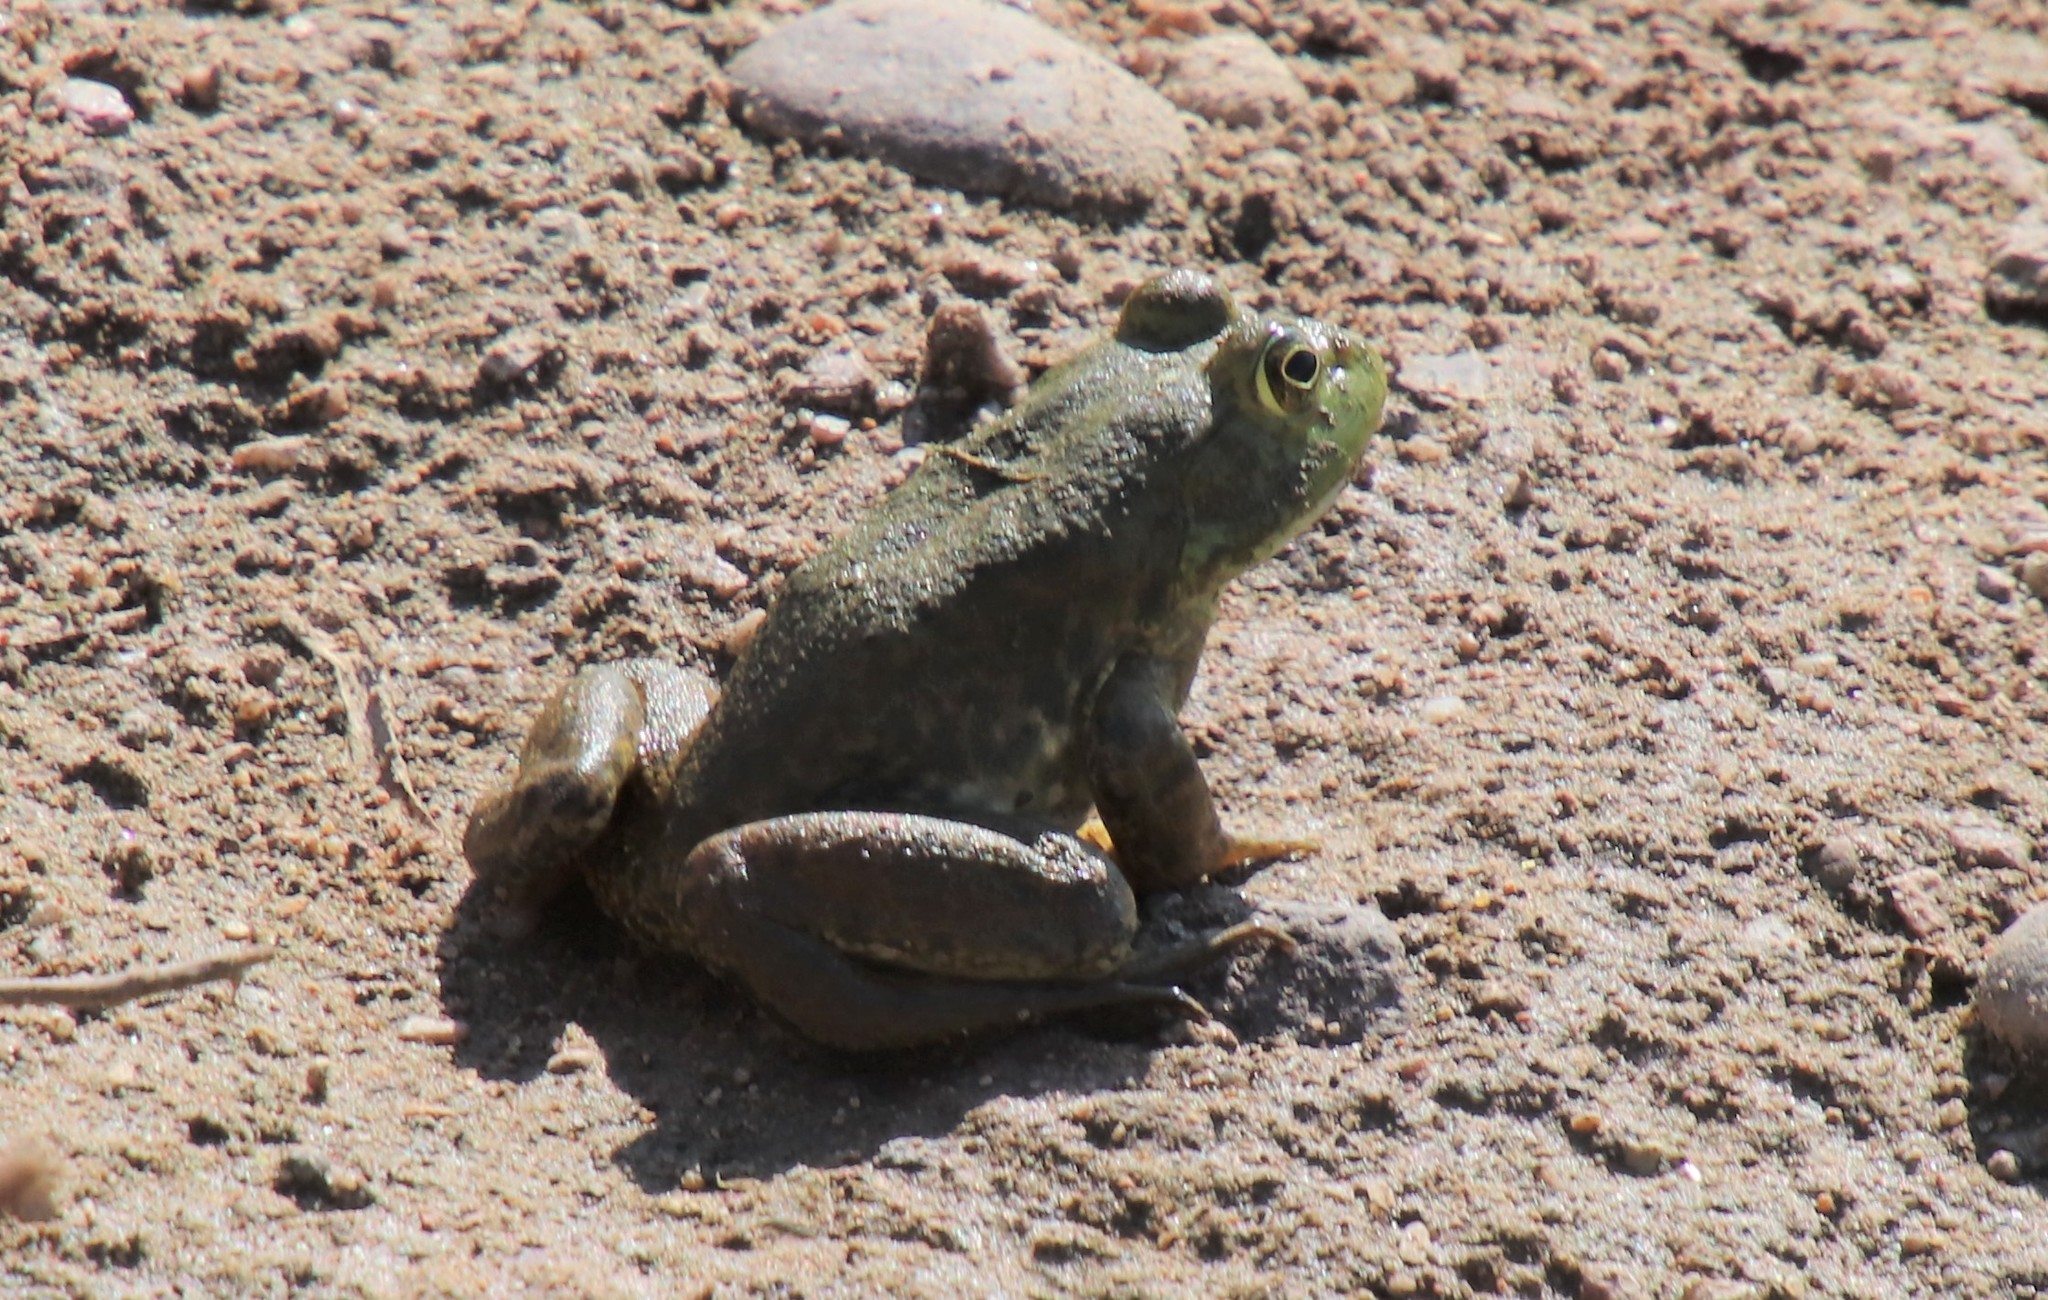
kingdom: Animalia
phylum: Chordata
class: Amphibia
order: Anura
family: Ranidae
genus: Lithobates
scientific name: Lithobates catesbeianus
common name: American bullfrog
